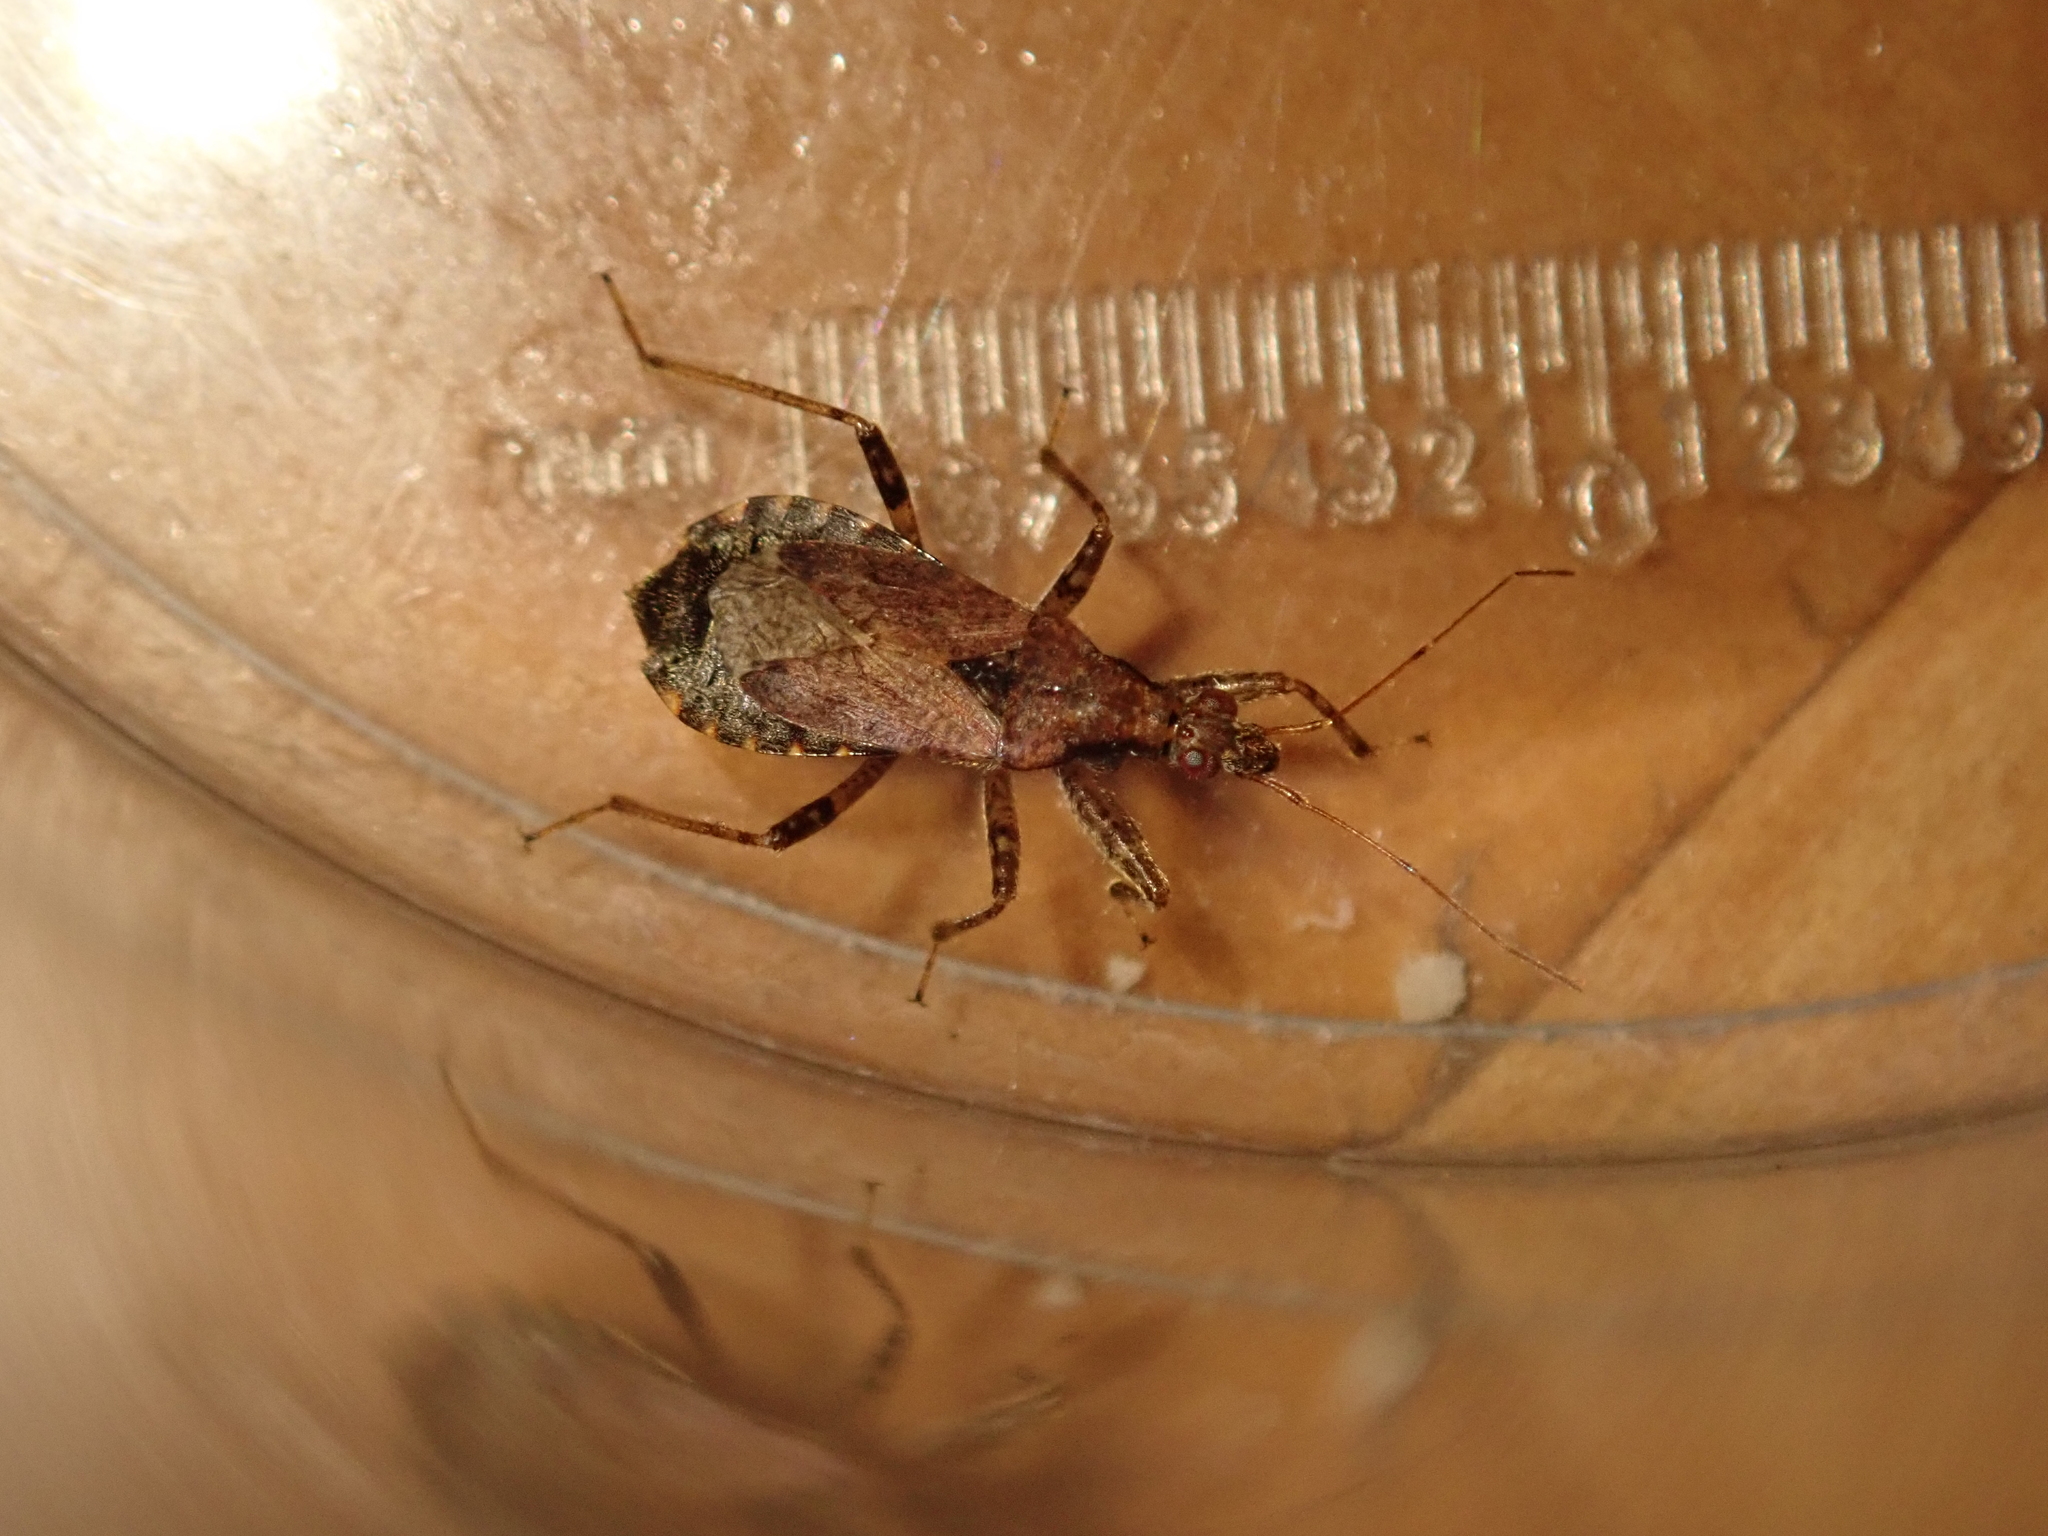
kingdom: Animalia
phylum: Arthropoda
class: Insecta
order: Hemiptera
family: Nabidae
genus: Himacerus
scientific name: Himacerus mirmicoides
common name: Ant damsel bug
